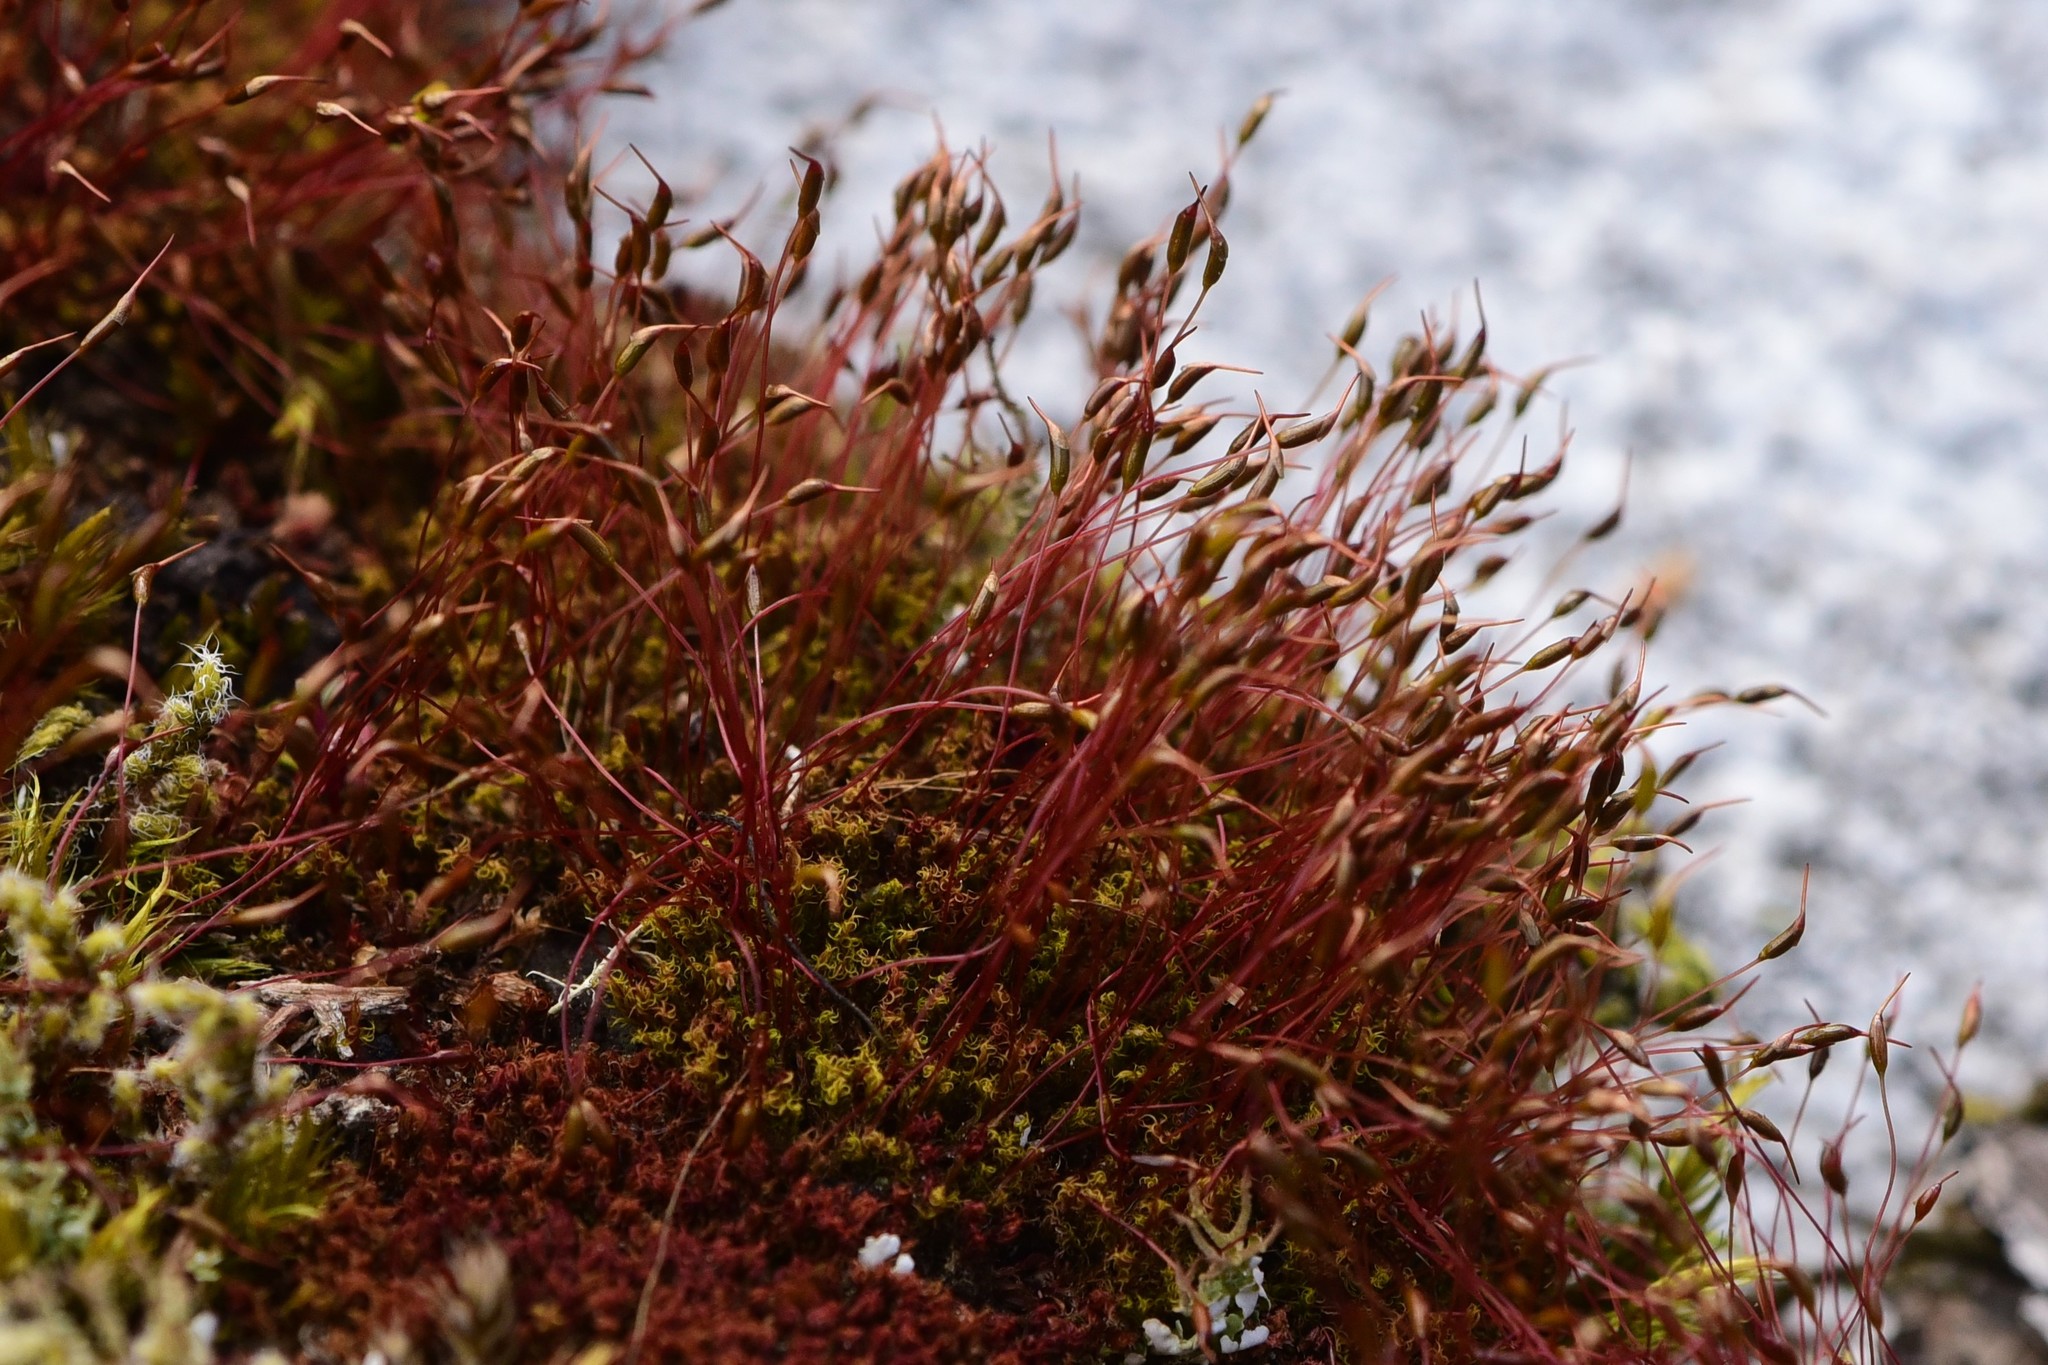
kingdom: Plantae
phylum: Bryophyta
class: Bryopsida
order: Dicranales
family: Ditrichaceae
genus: Ceratodon
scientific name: Ceratodon purpureus
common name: Redshank
